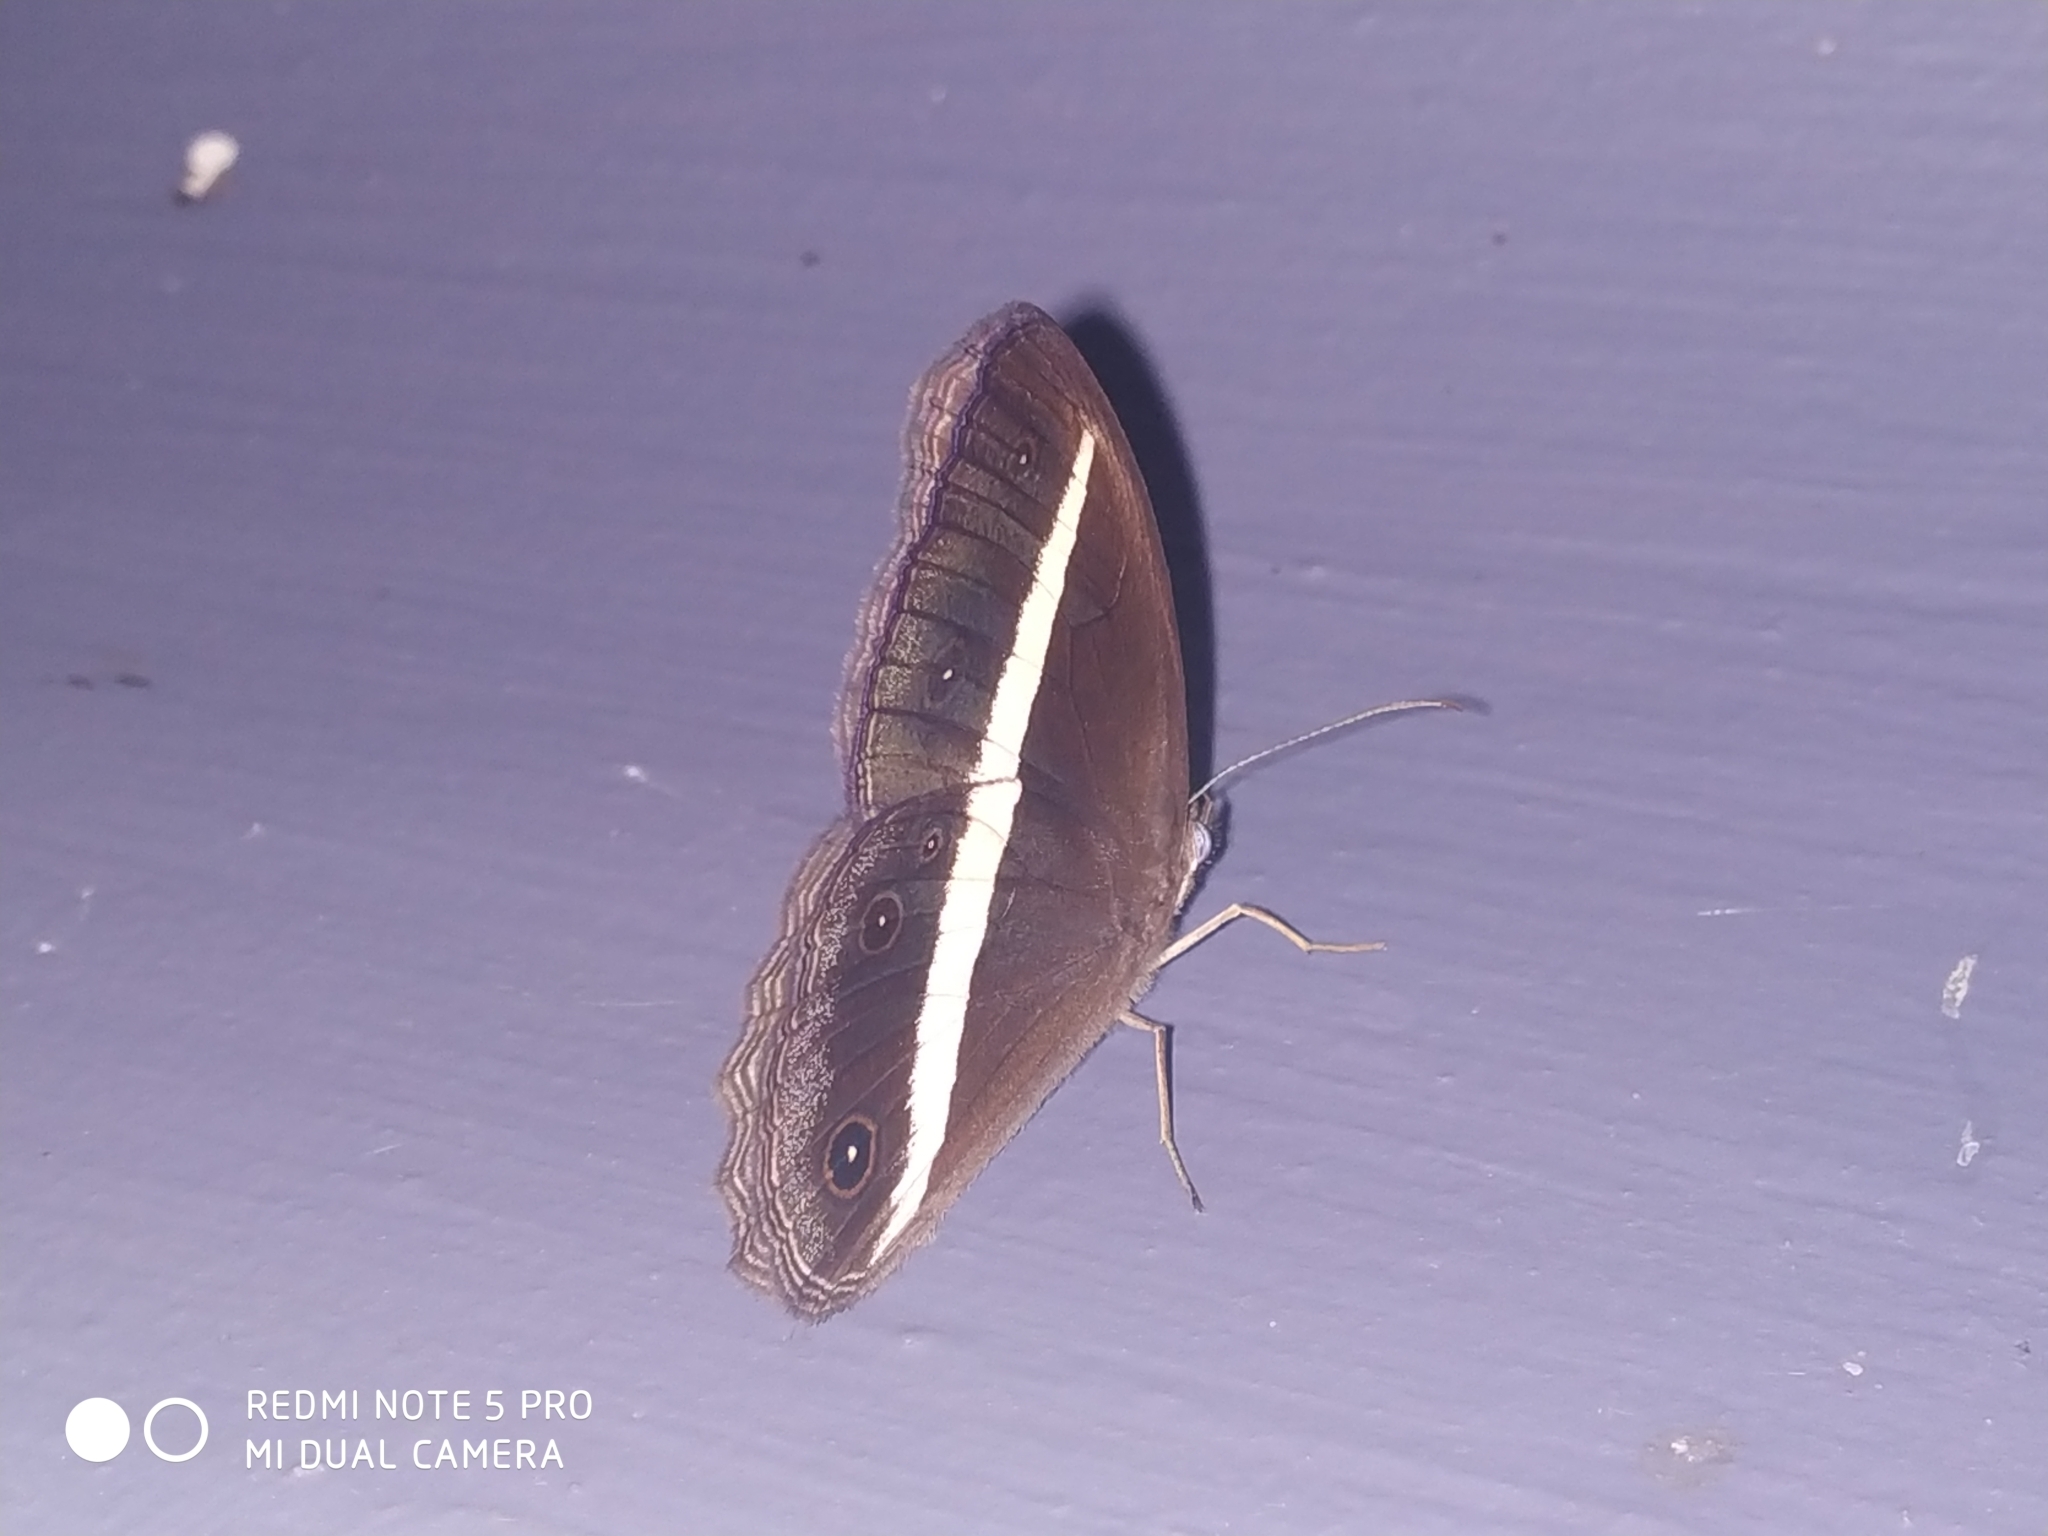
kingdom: Animalia
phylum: Arthropoda
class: Insecta
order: Lepidoptera
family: Nymphalidae
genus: Orsotriaena
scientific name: Orsotriaena medus
